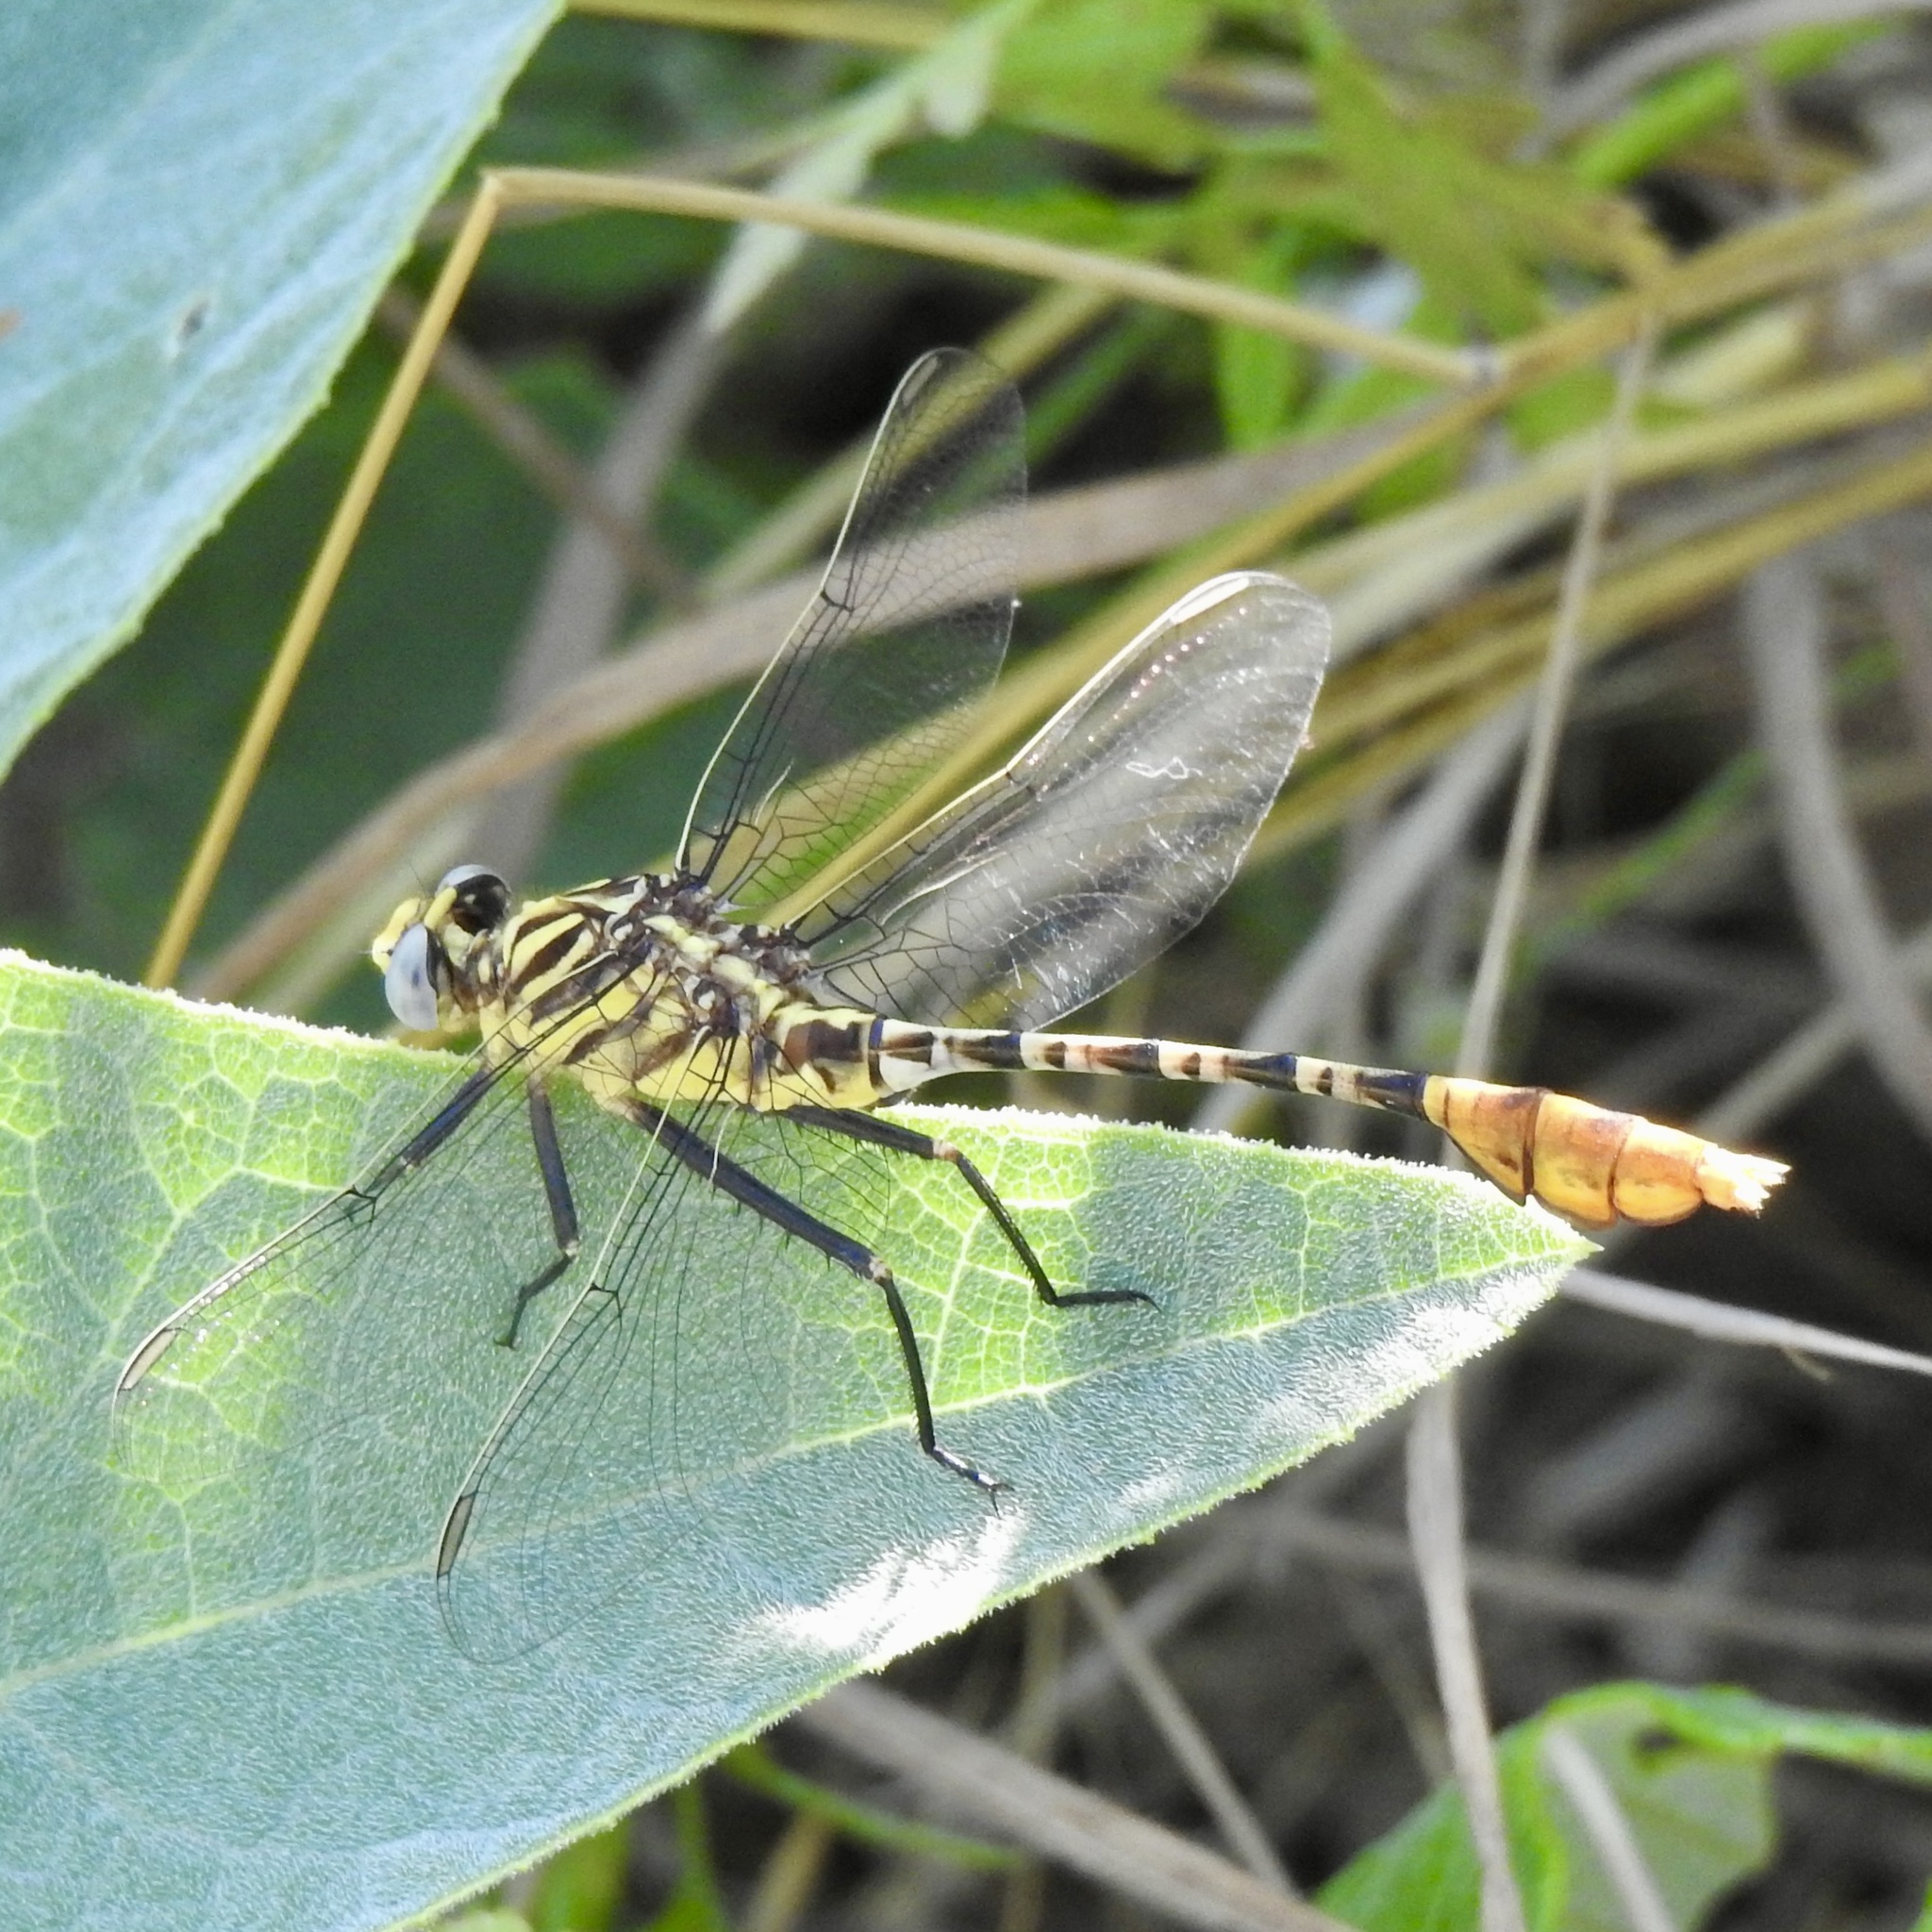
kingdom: Animalia
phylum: Arthropoda
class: Insecta
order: Odonata
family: Gomphidae
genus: Dromogomphus
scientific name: Dromogomphus spoliatus
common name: Flag-tailed spinyleg
